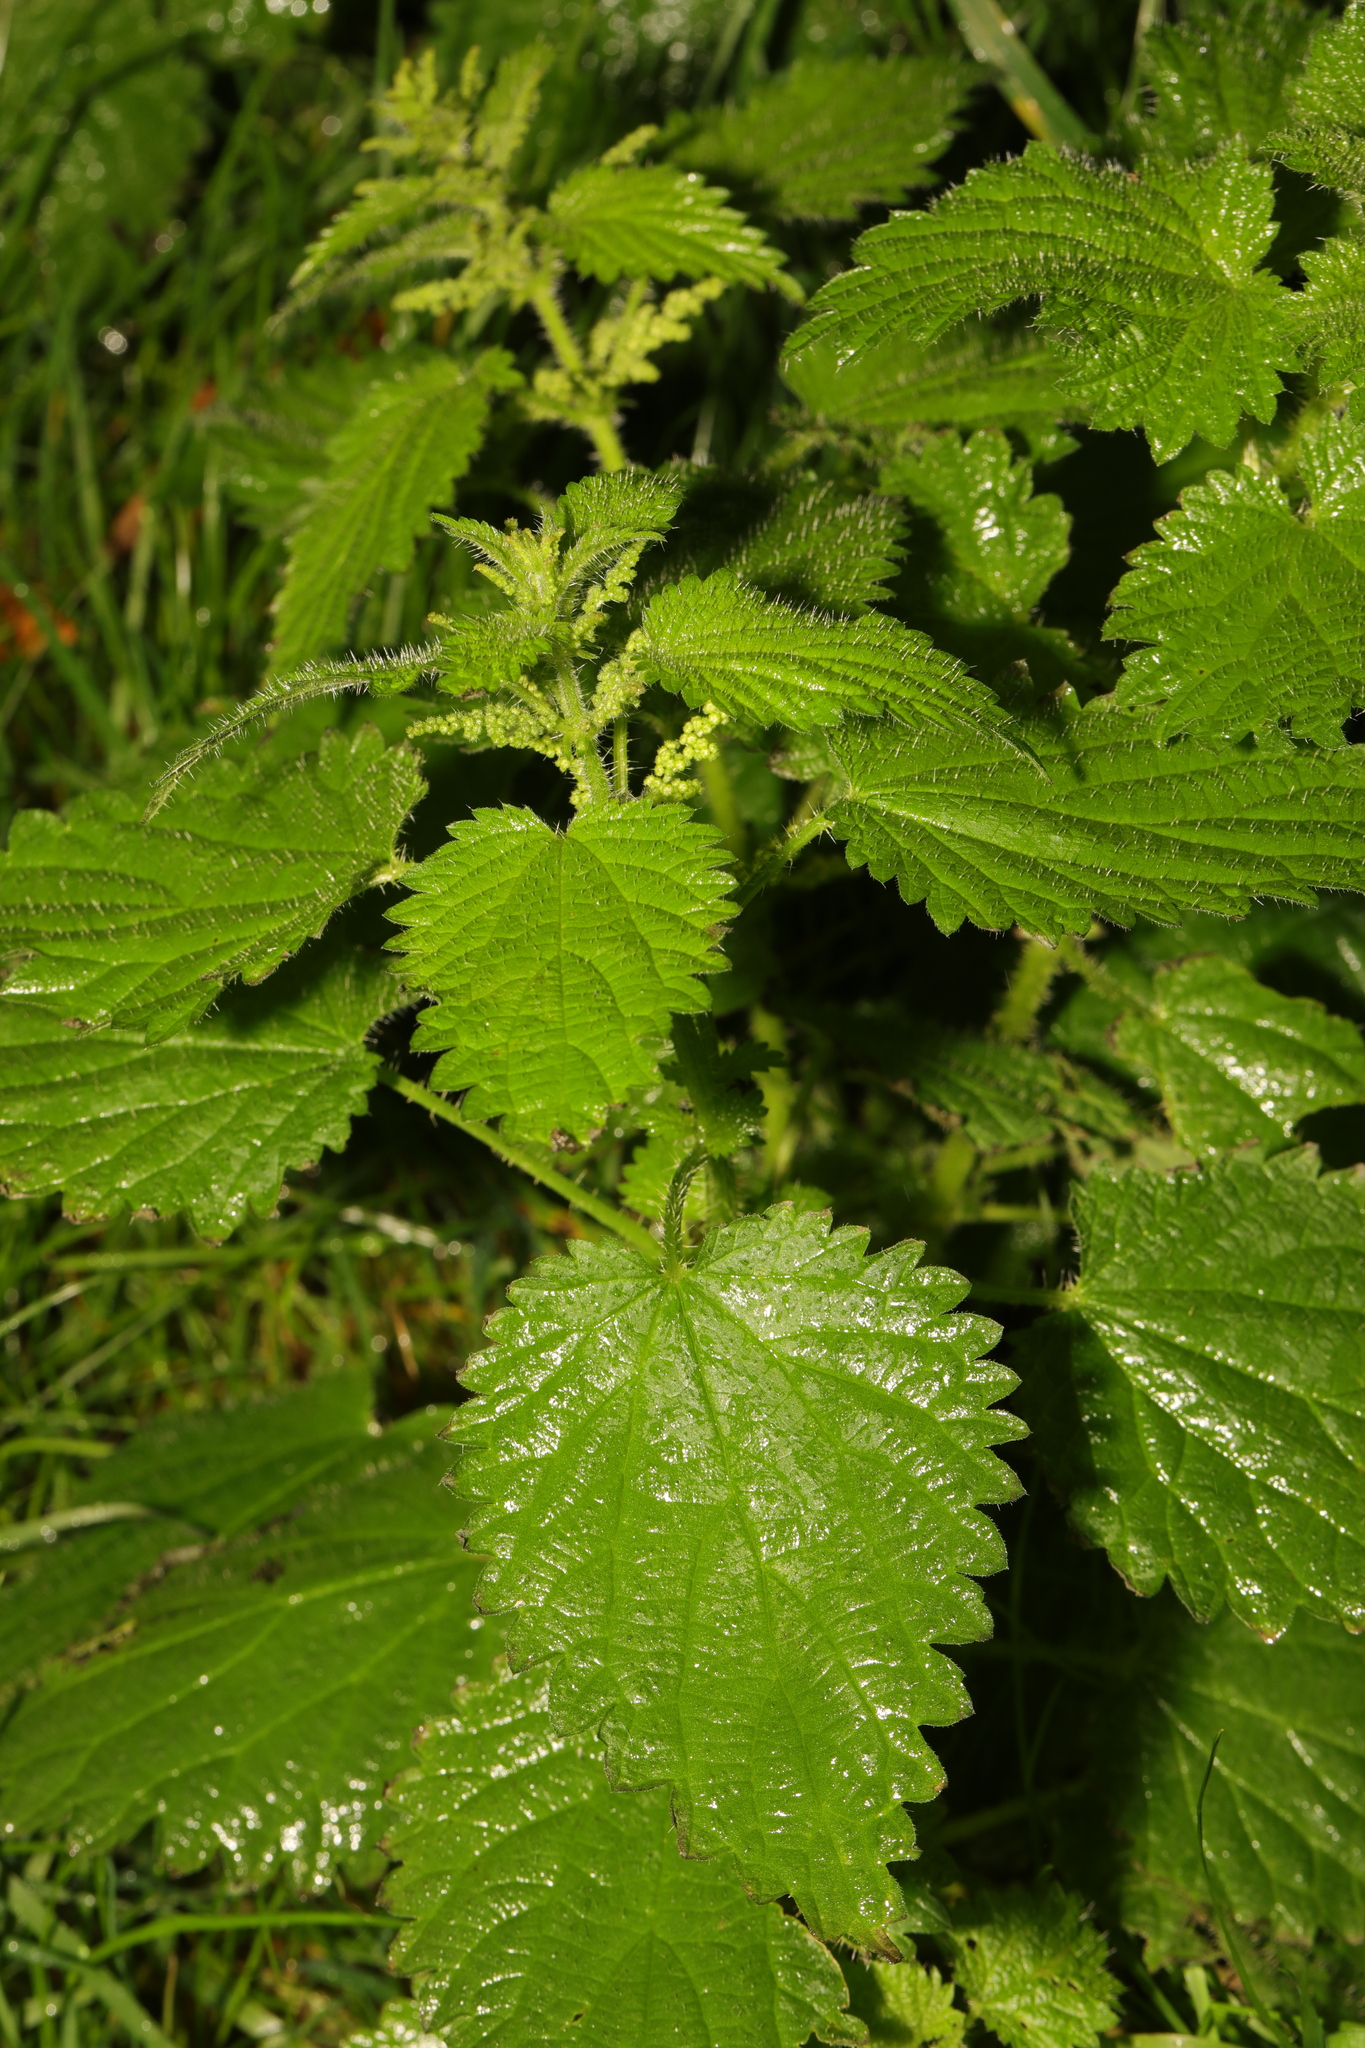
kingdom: Plantae
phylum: Tracheophyta
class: Magnoliopsida
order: Rosales
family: Urticaceae
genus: Urtica
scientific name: Urtica dioica
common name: Common nettle
